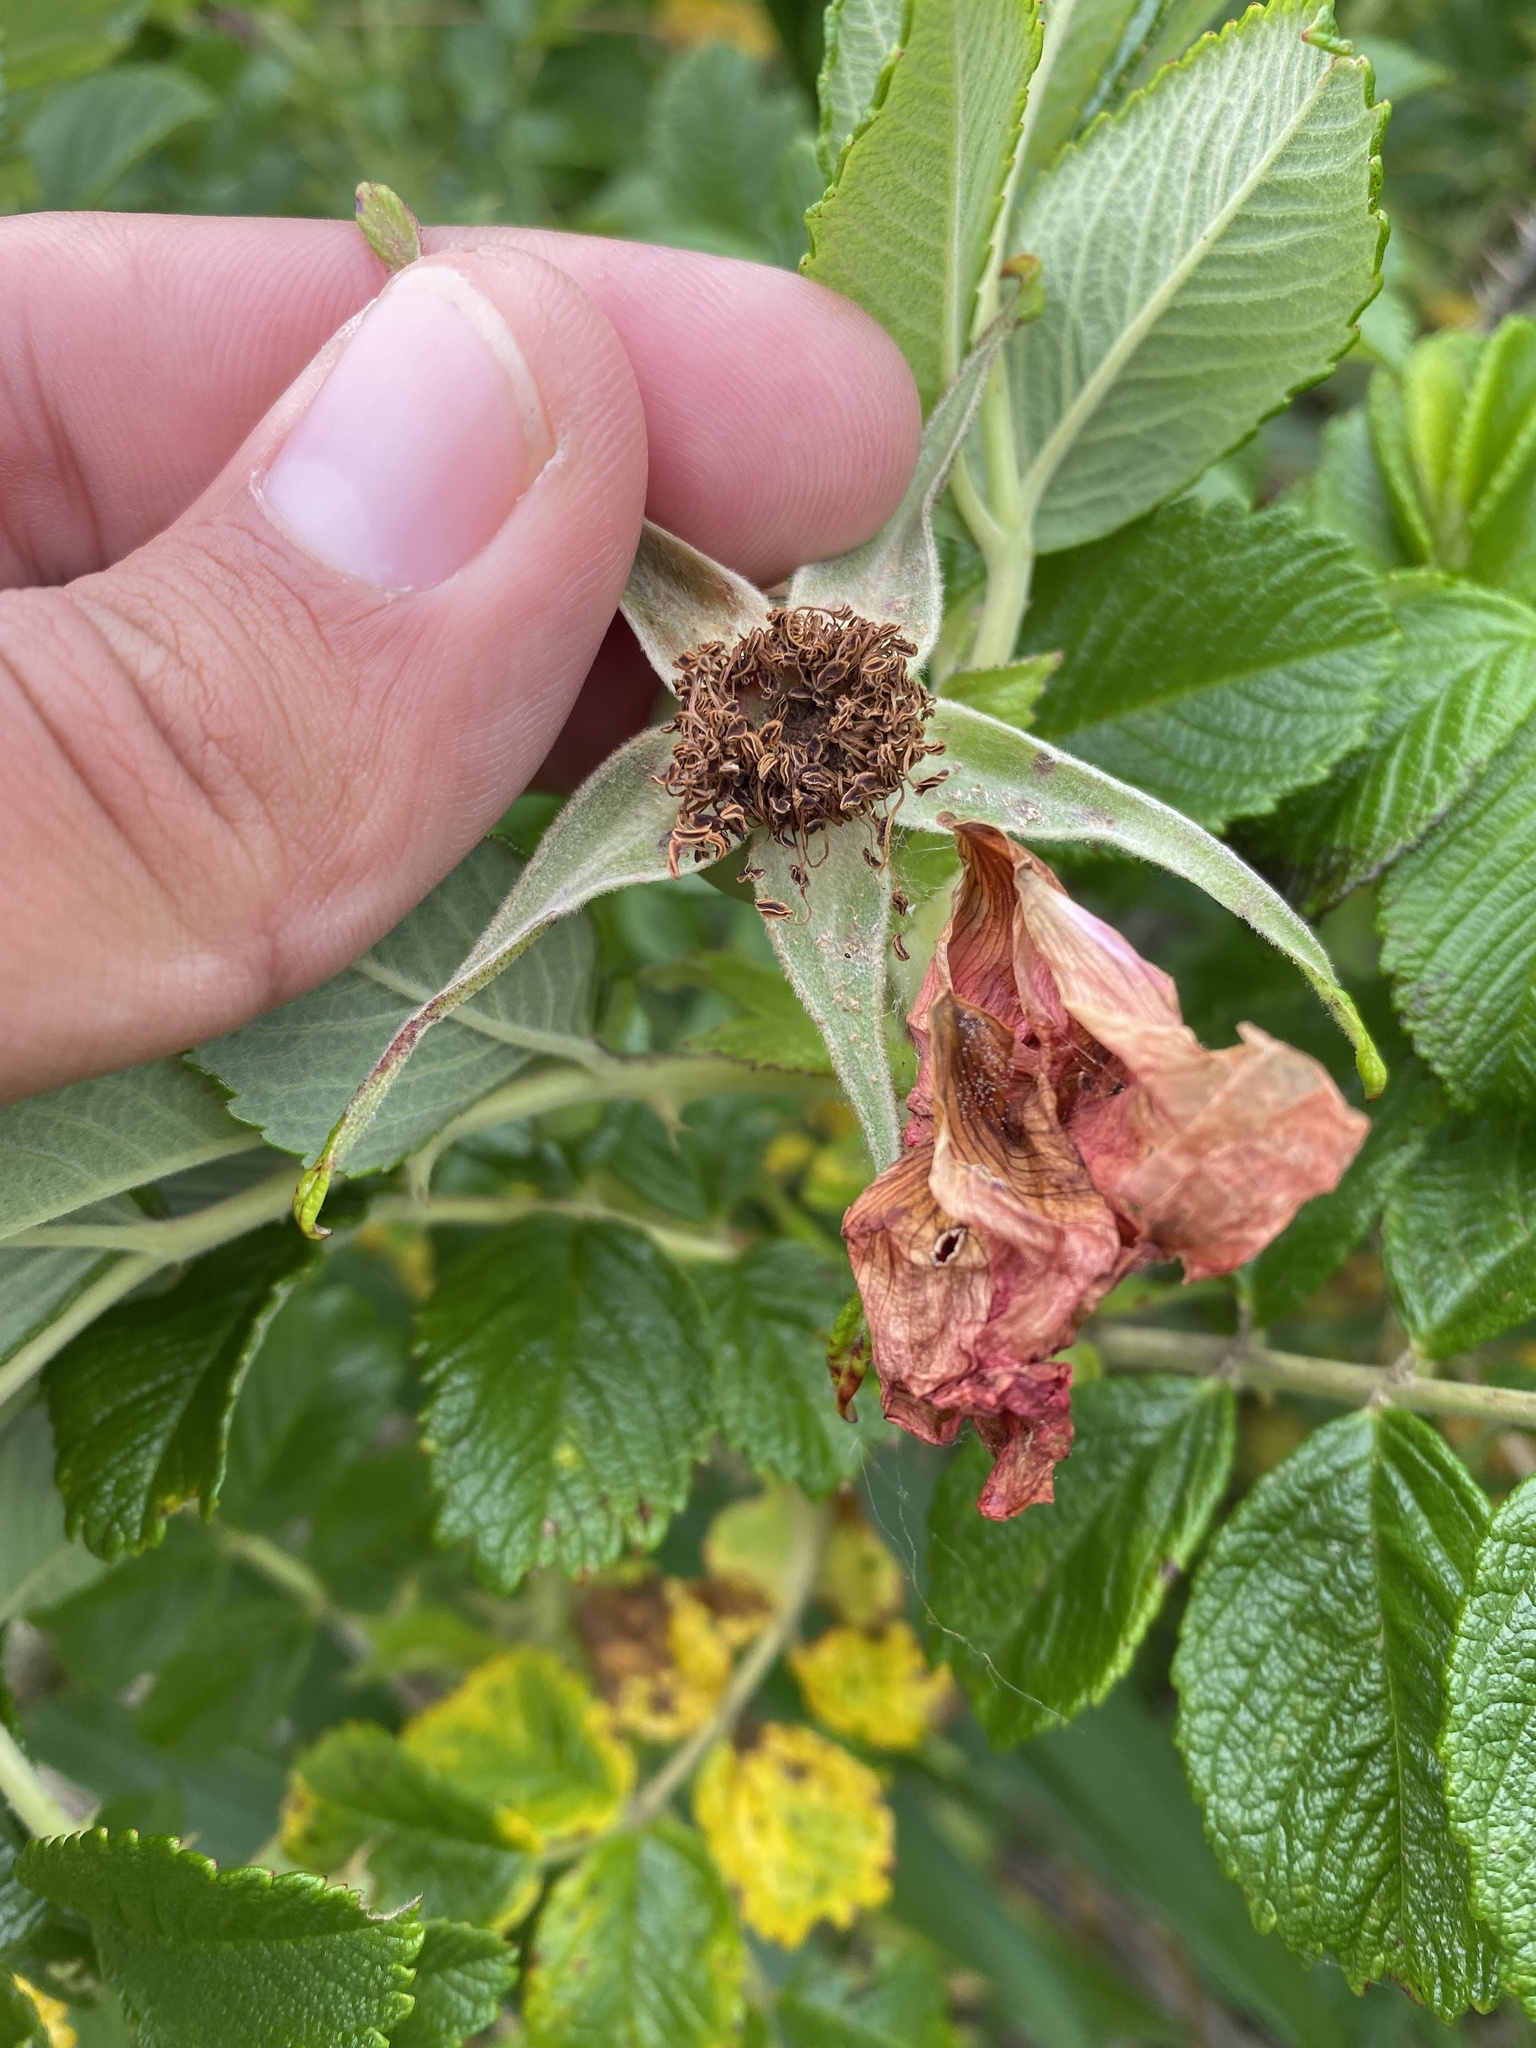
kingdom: Plantae
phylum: Tracheophyta
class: Magnoliopsida
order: Rosales
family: Rosaceae
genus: Rosa
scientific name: Rosa rugosa
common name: Japanese rose
